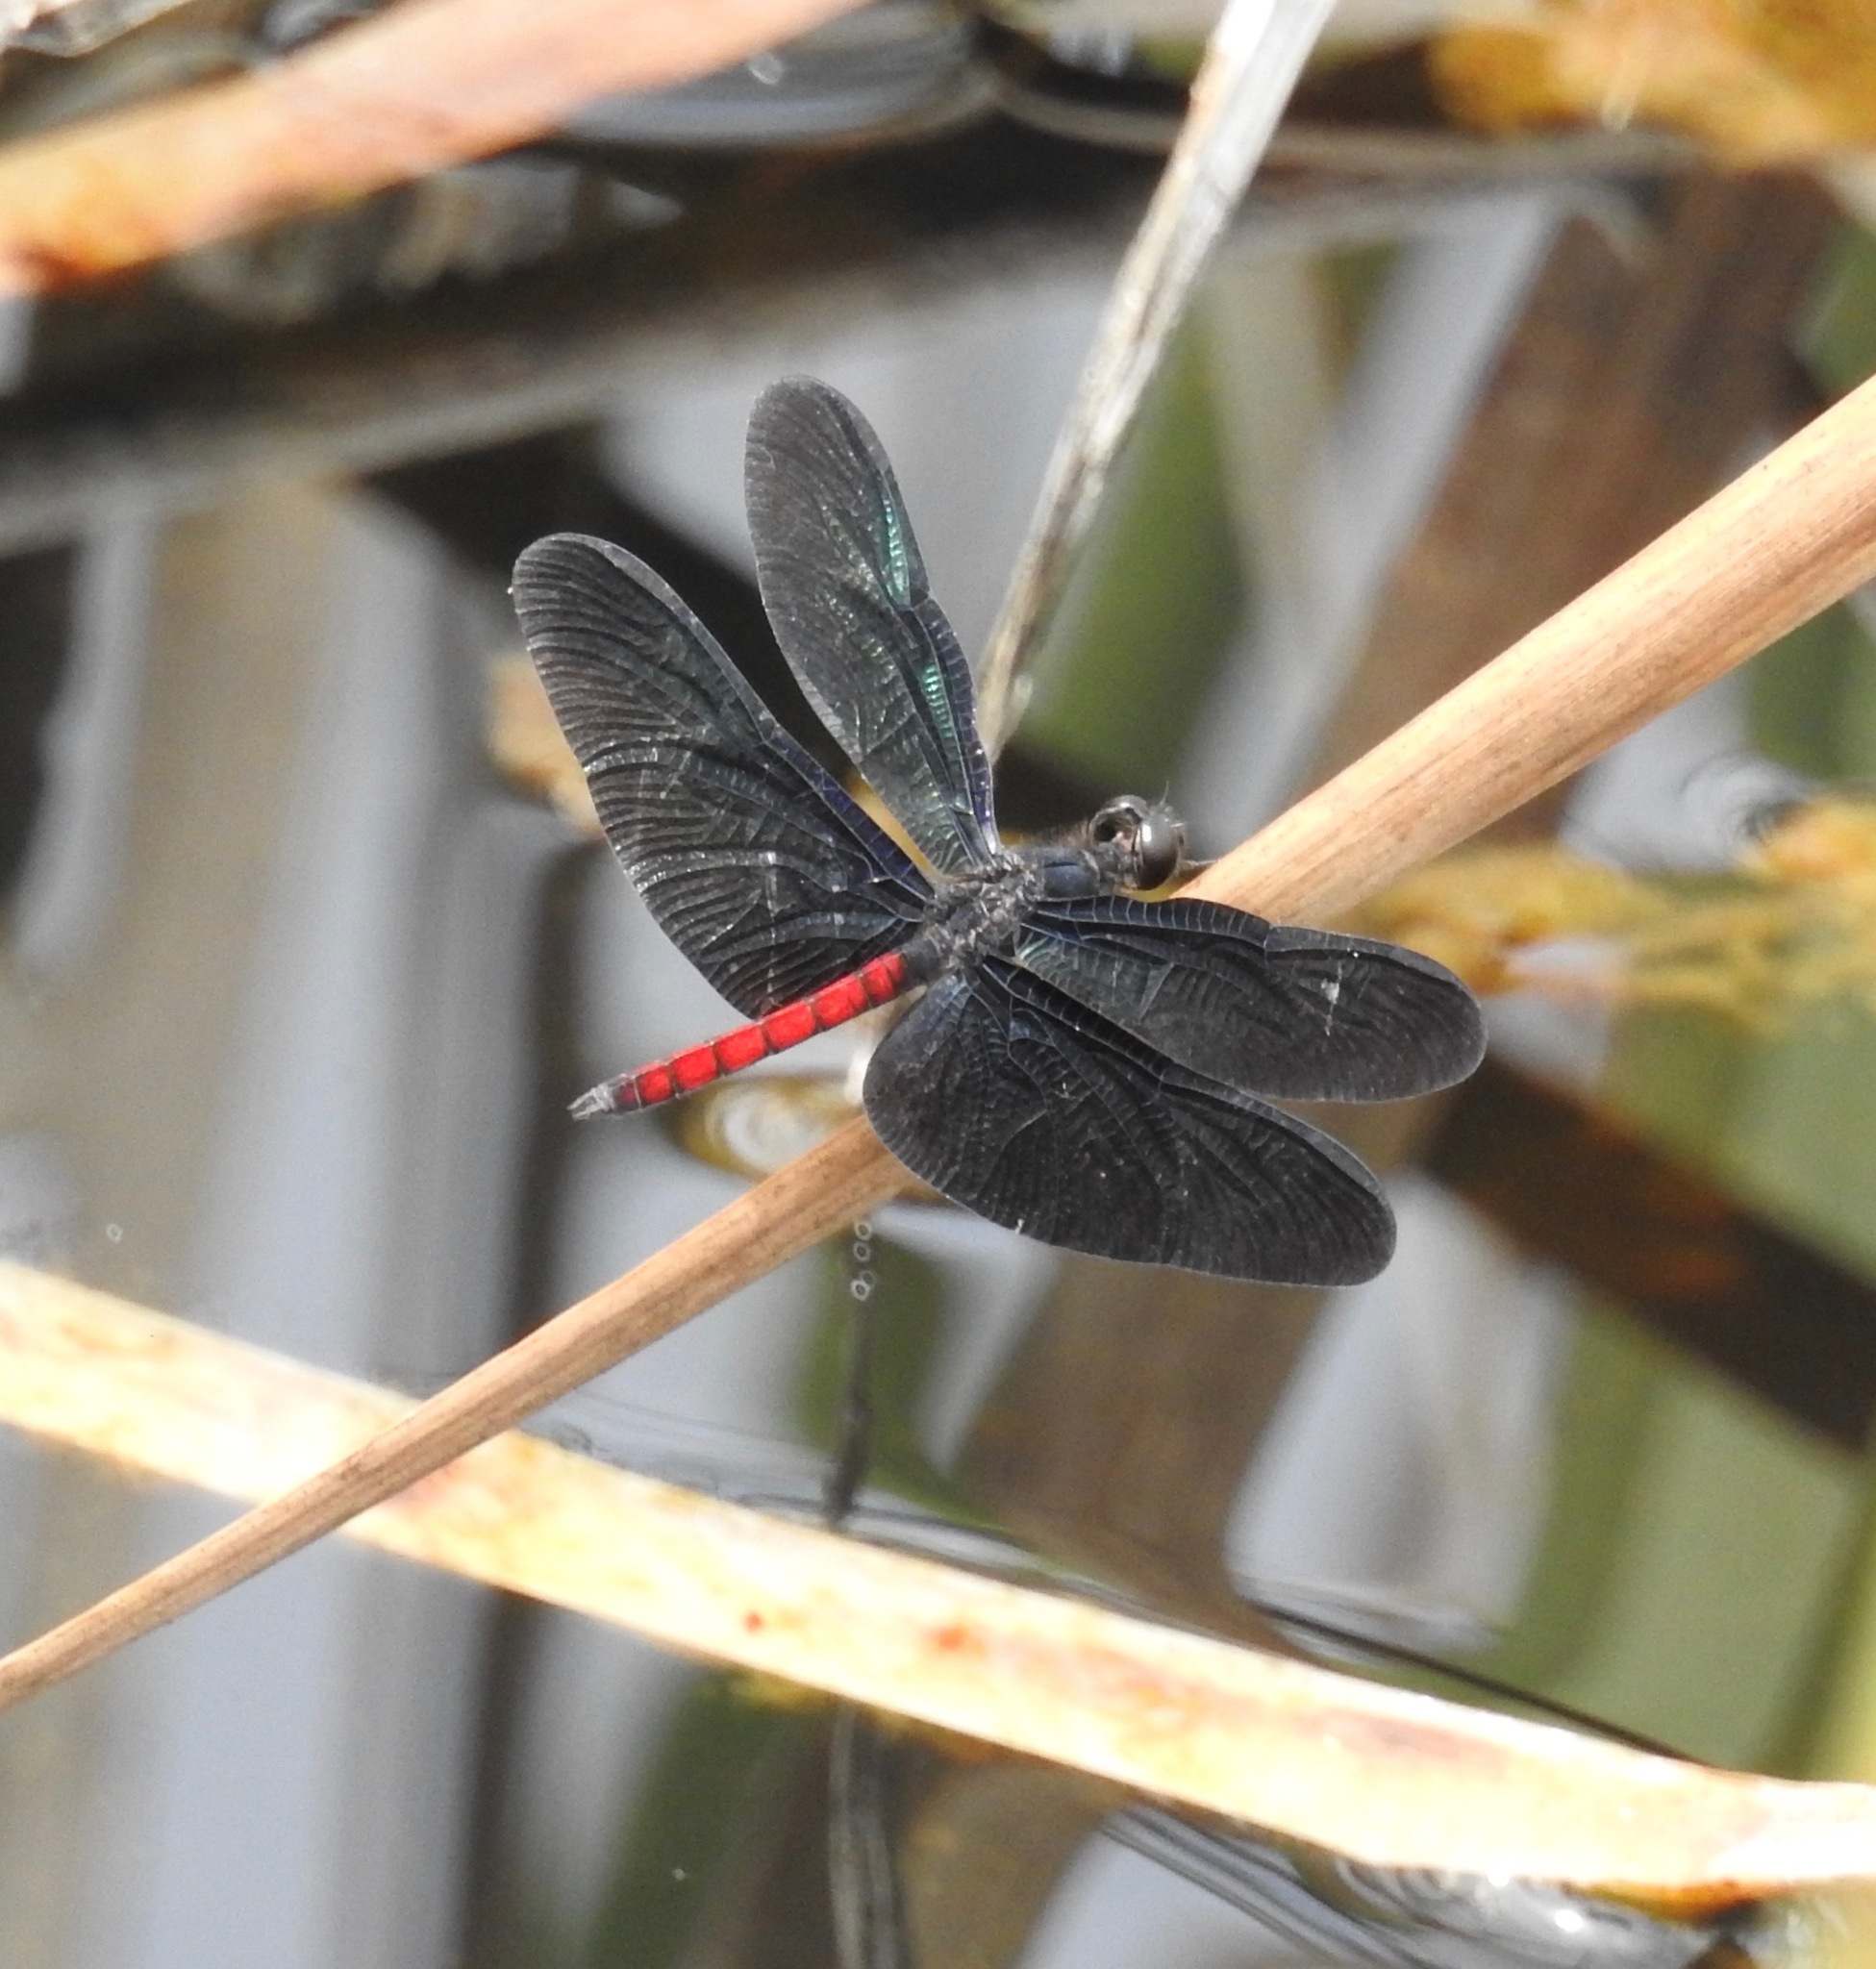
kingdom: Animalia
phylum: Arthropoda
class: Insecta
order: Odonata
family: Libellulidae
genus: Diastatops
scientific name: Diastatops obscura
